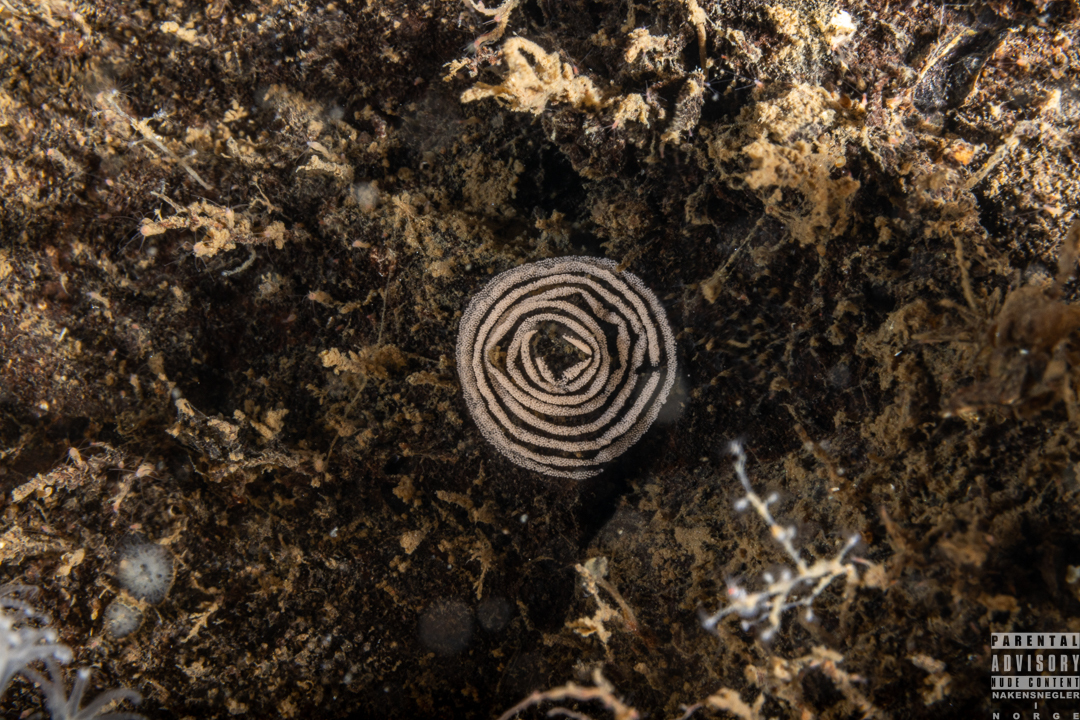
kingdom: Animalia
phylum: Mollusca
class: Gastropoda
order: Nudibranchia
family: Heroidae
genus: Hero
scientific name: Hero formosa
